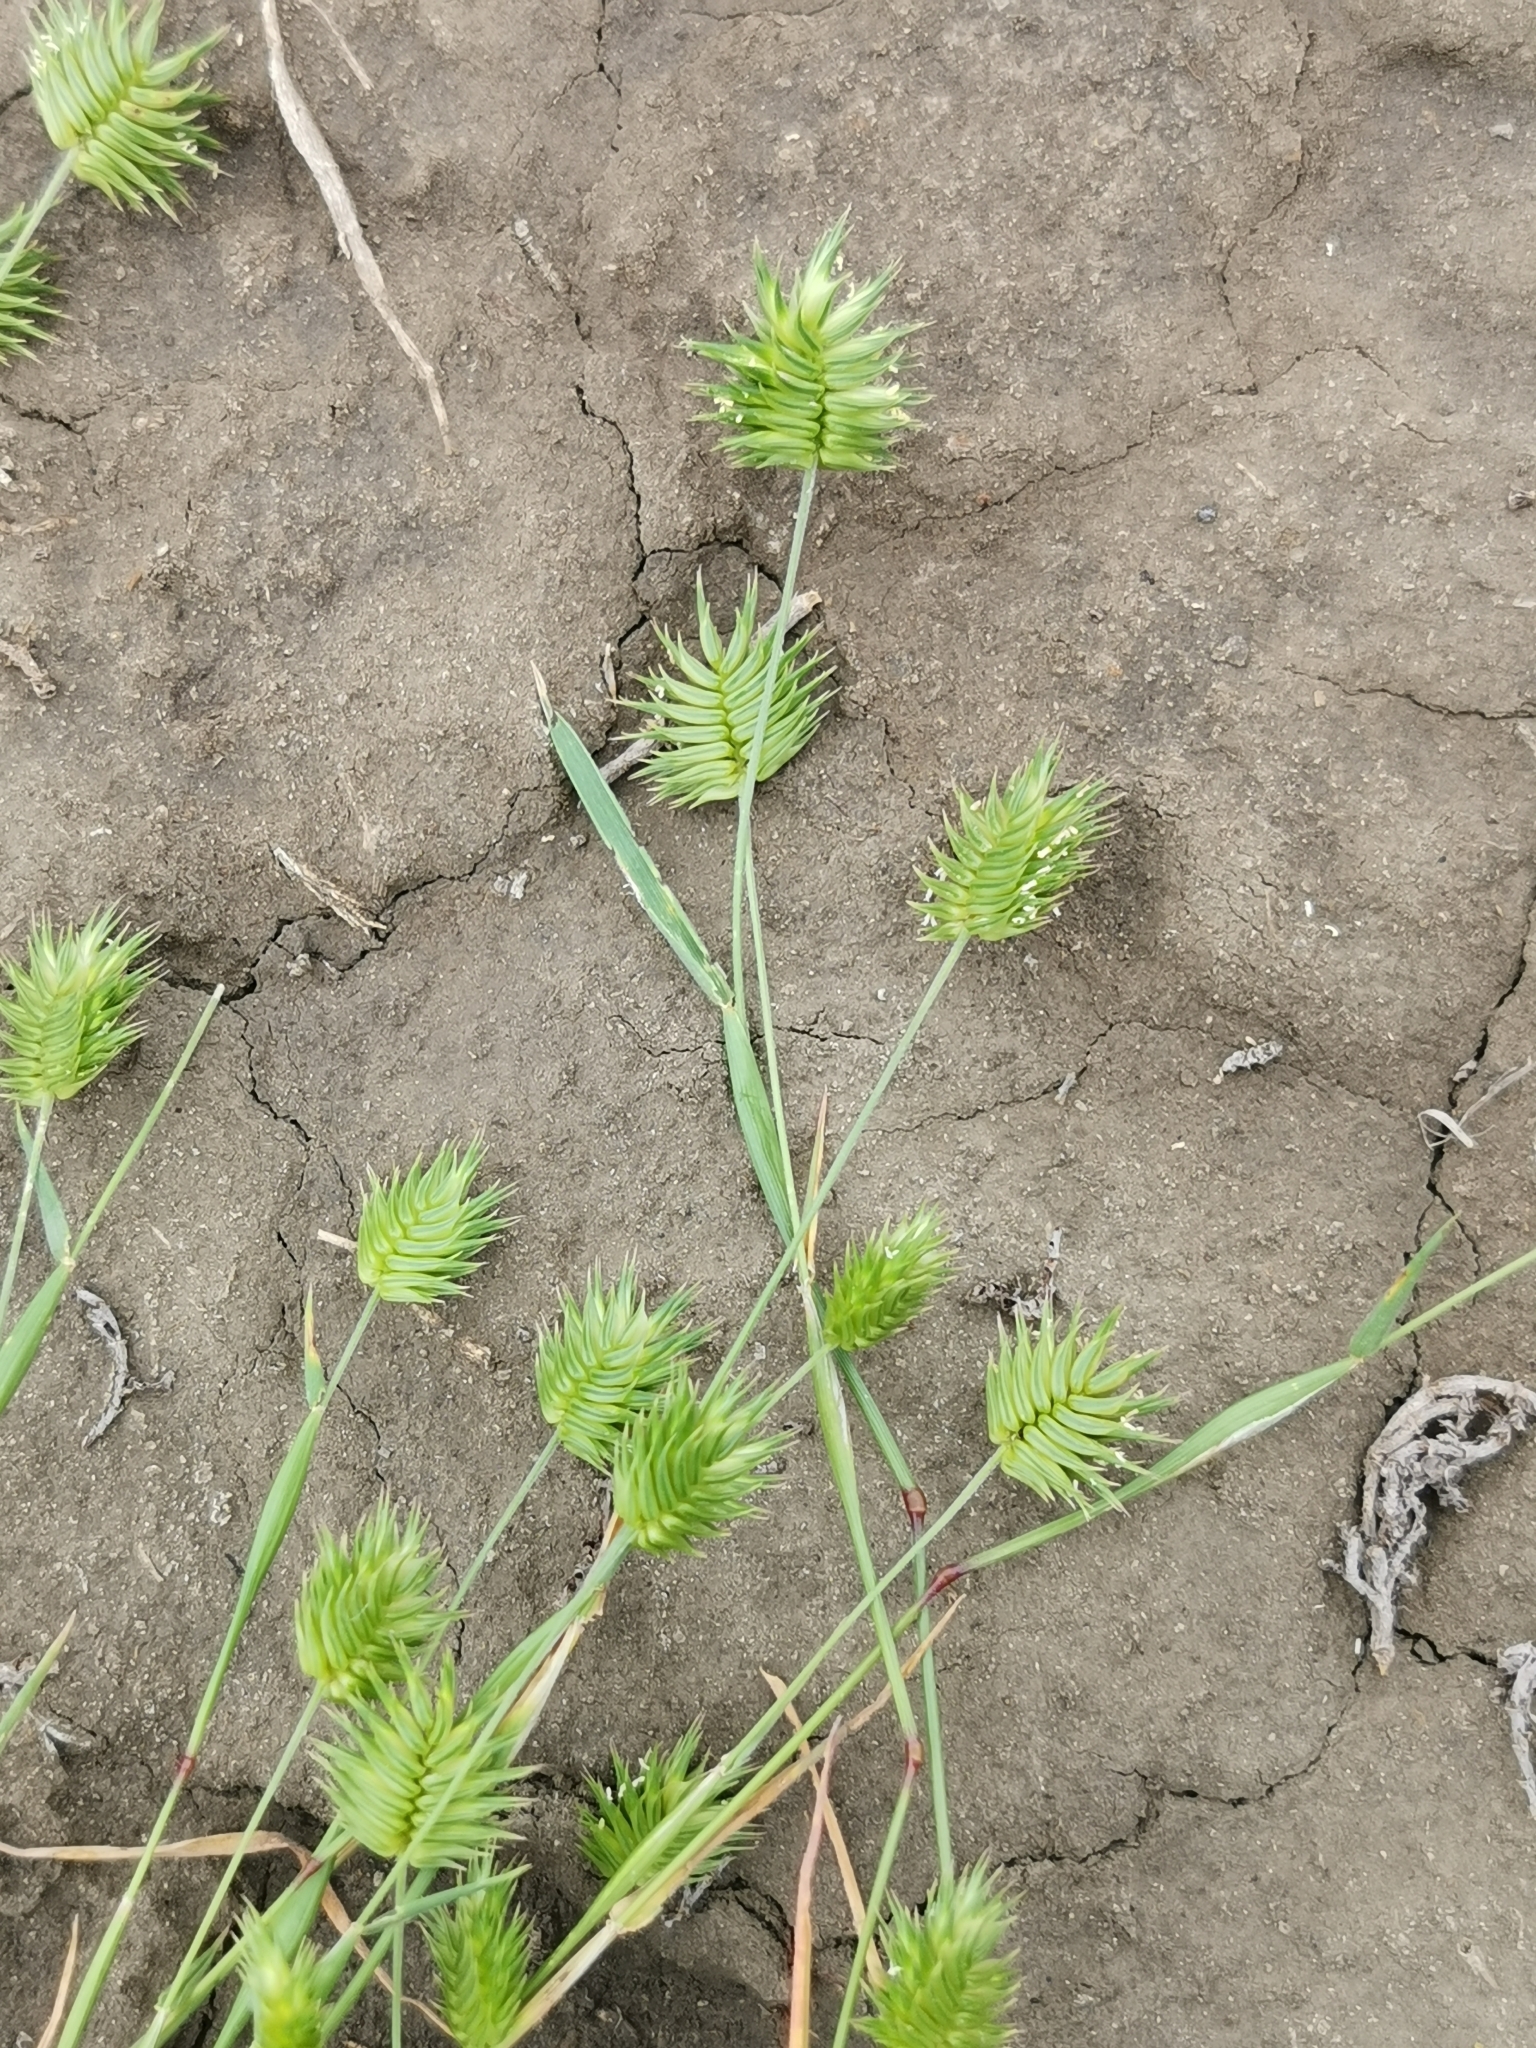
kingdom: Plantae
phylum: Tracheophyta
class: Liliopsida
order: Poales
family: Poaceae
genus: Eremopyrum
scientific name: Eremopyrum triticeum
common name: Annual wheatgrass
